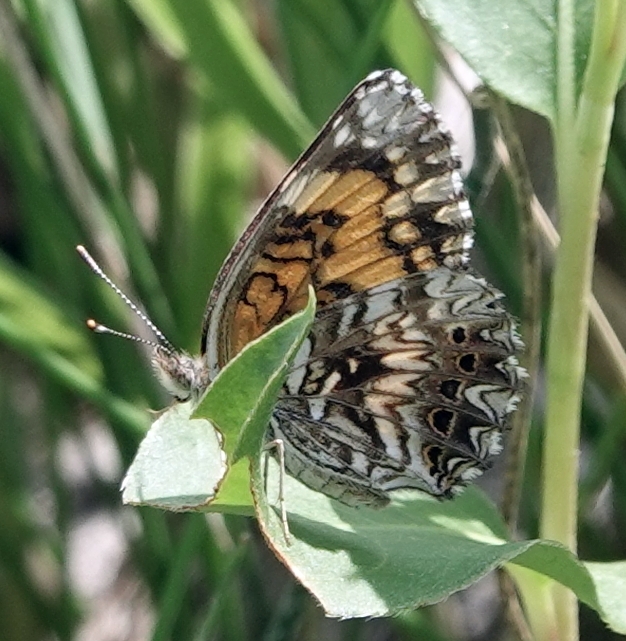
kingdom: Animalia
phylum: Arthropoda
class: Insecta
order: Lepidoptera
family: Nymphalidae
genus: Chlosyne
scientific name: Chlosyne gorgone
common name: Gorgone checkerspot
